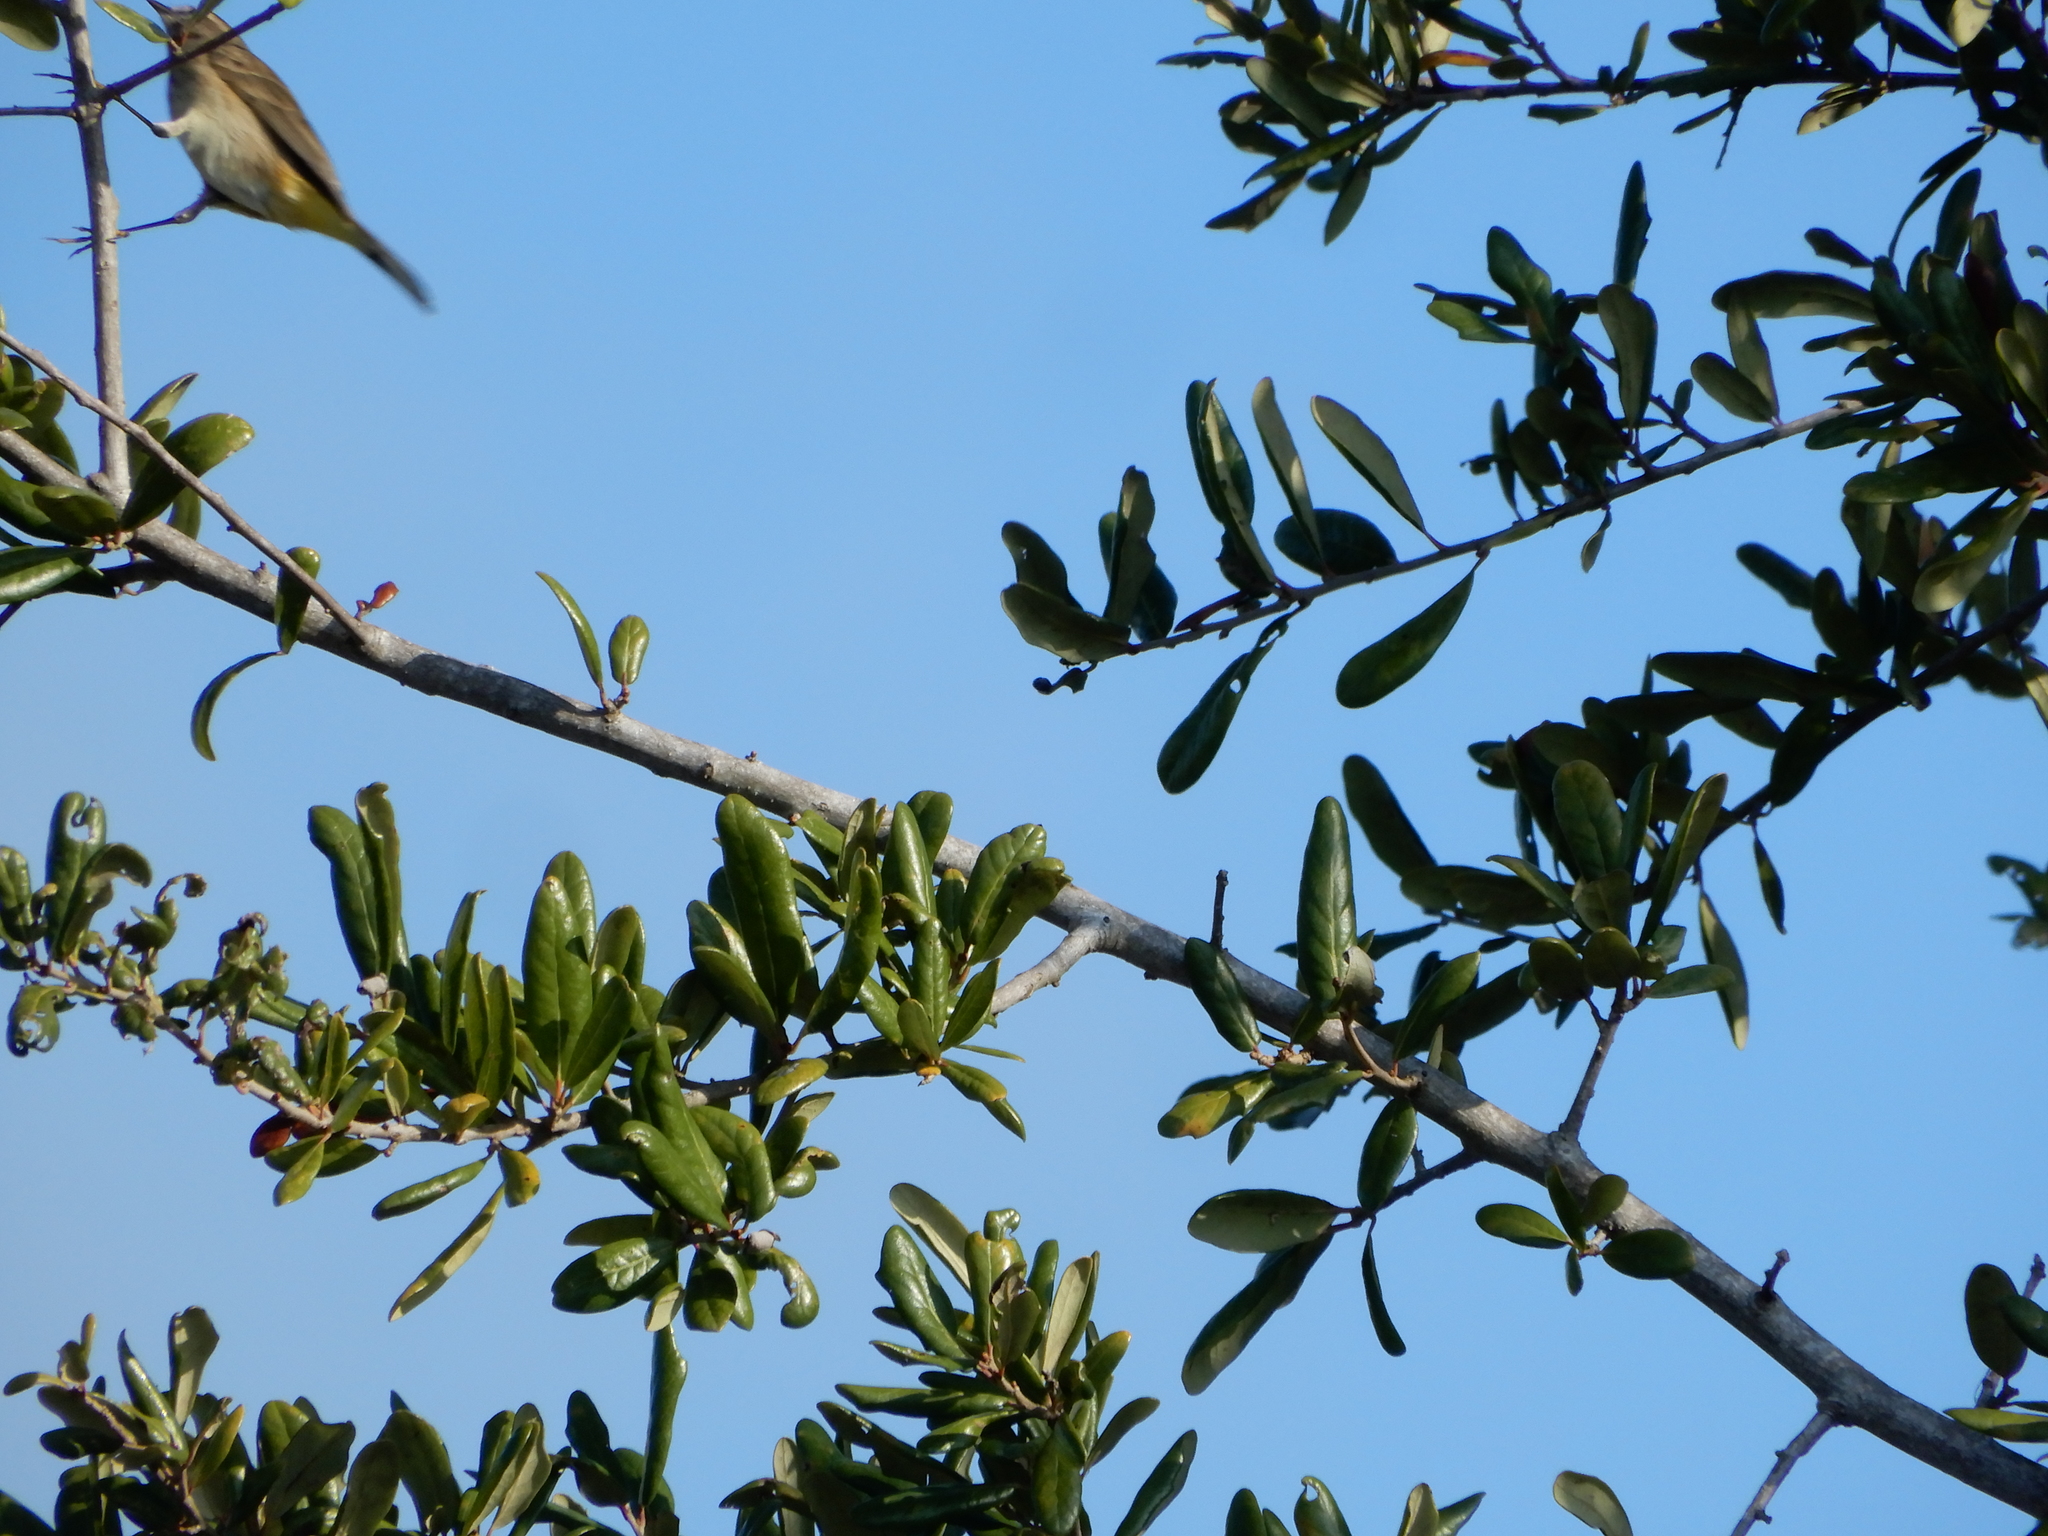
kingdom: Animalia
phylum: Chordata
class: Aves
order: Passeriformes
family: Parulidae
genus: Setophaga
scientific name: Setophaga palmarum
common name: Palm warbler
